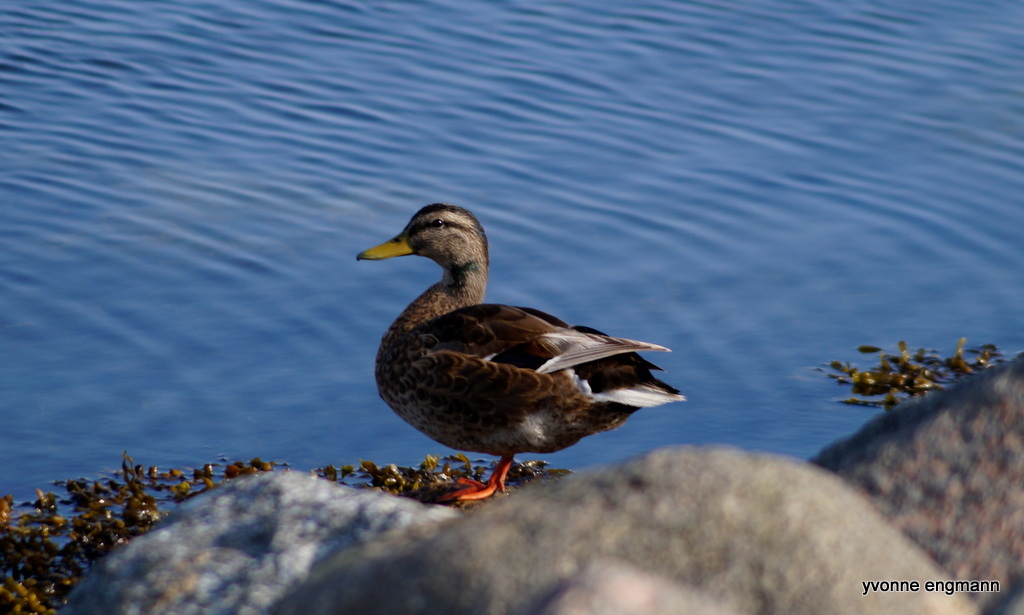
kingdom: Animalia
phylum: Chordata
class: Aves
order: Anseriformes
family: Anatidae
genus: Anas
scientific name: Anas platyrhynchos
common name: Mallard
